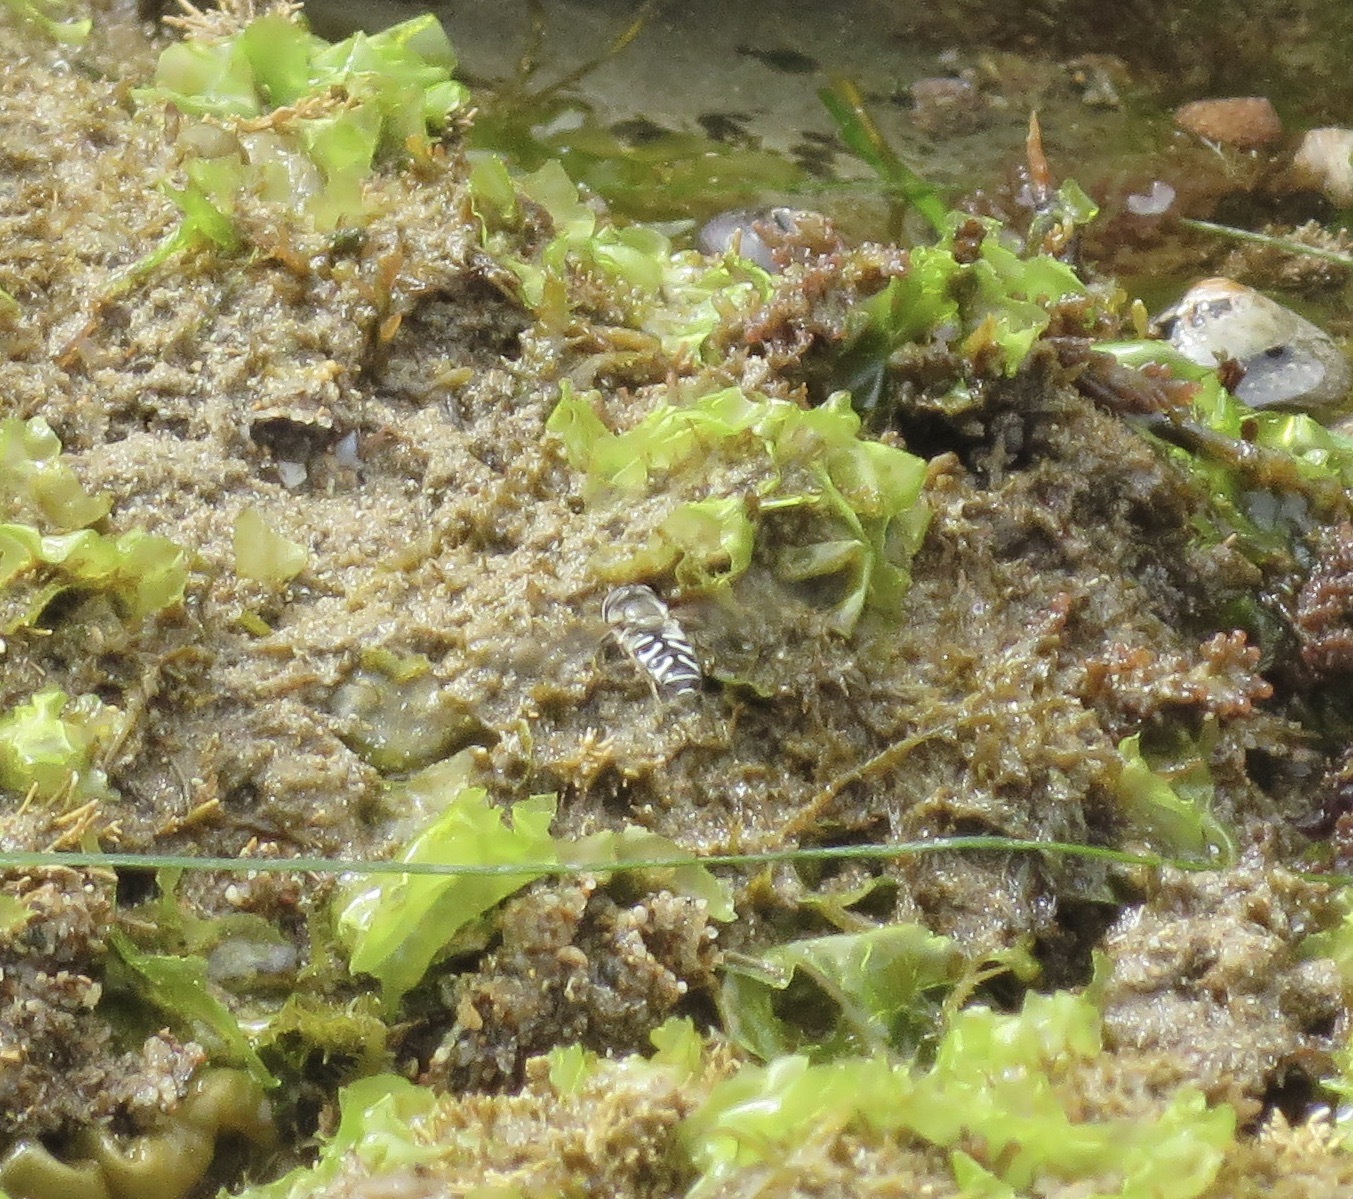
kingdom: Animalia
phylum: Arthropoda
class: Insecta
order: Diptera
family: Syrphidae
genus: Scaeva
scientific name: Scaeva affinis
